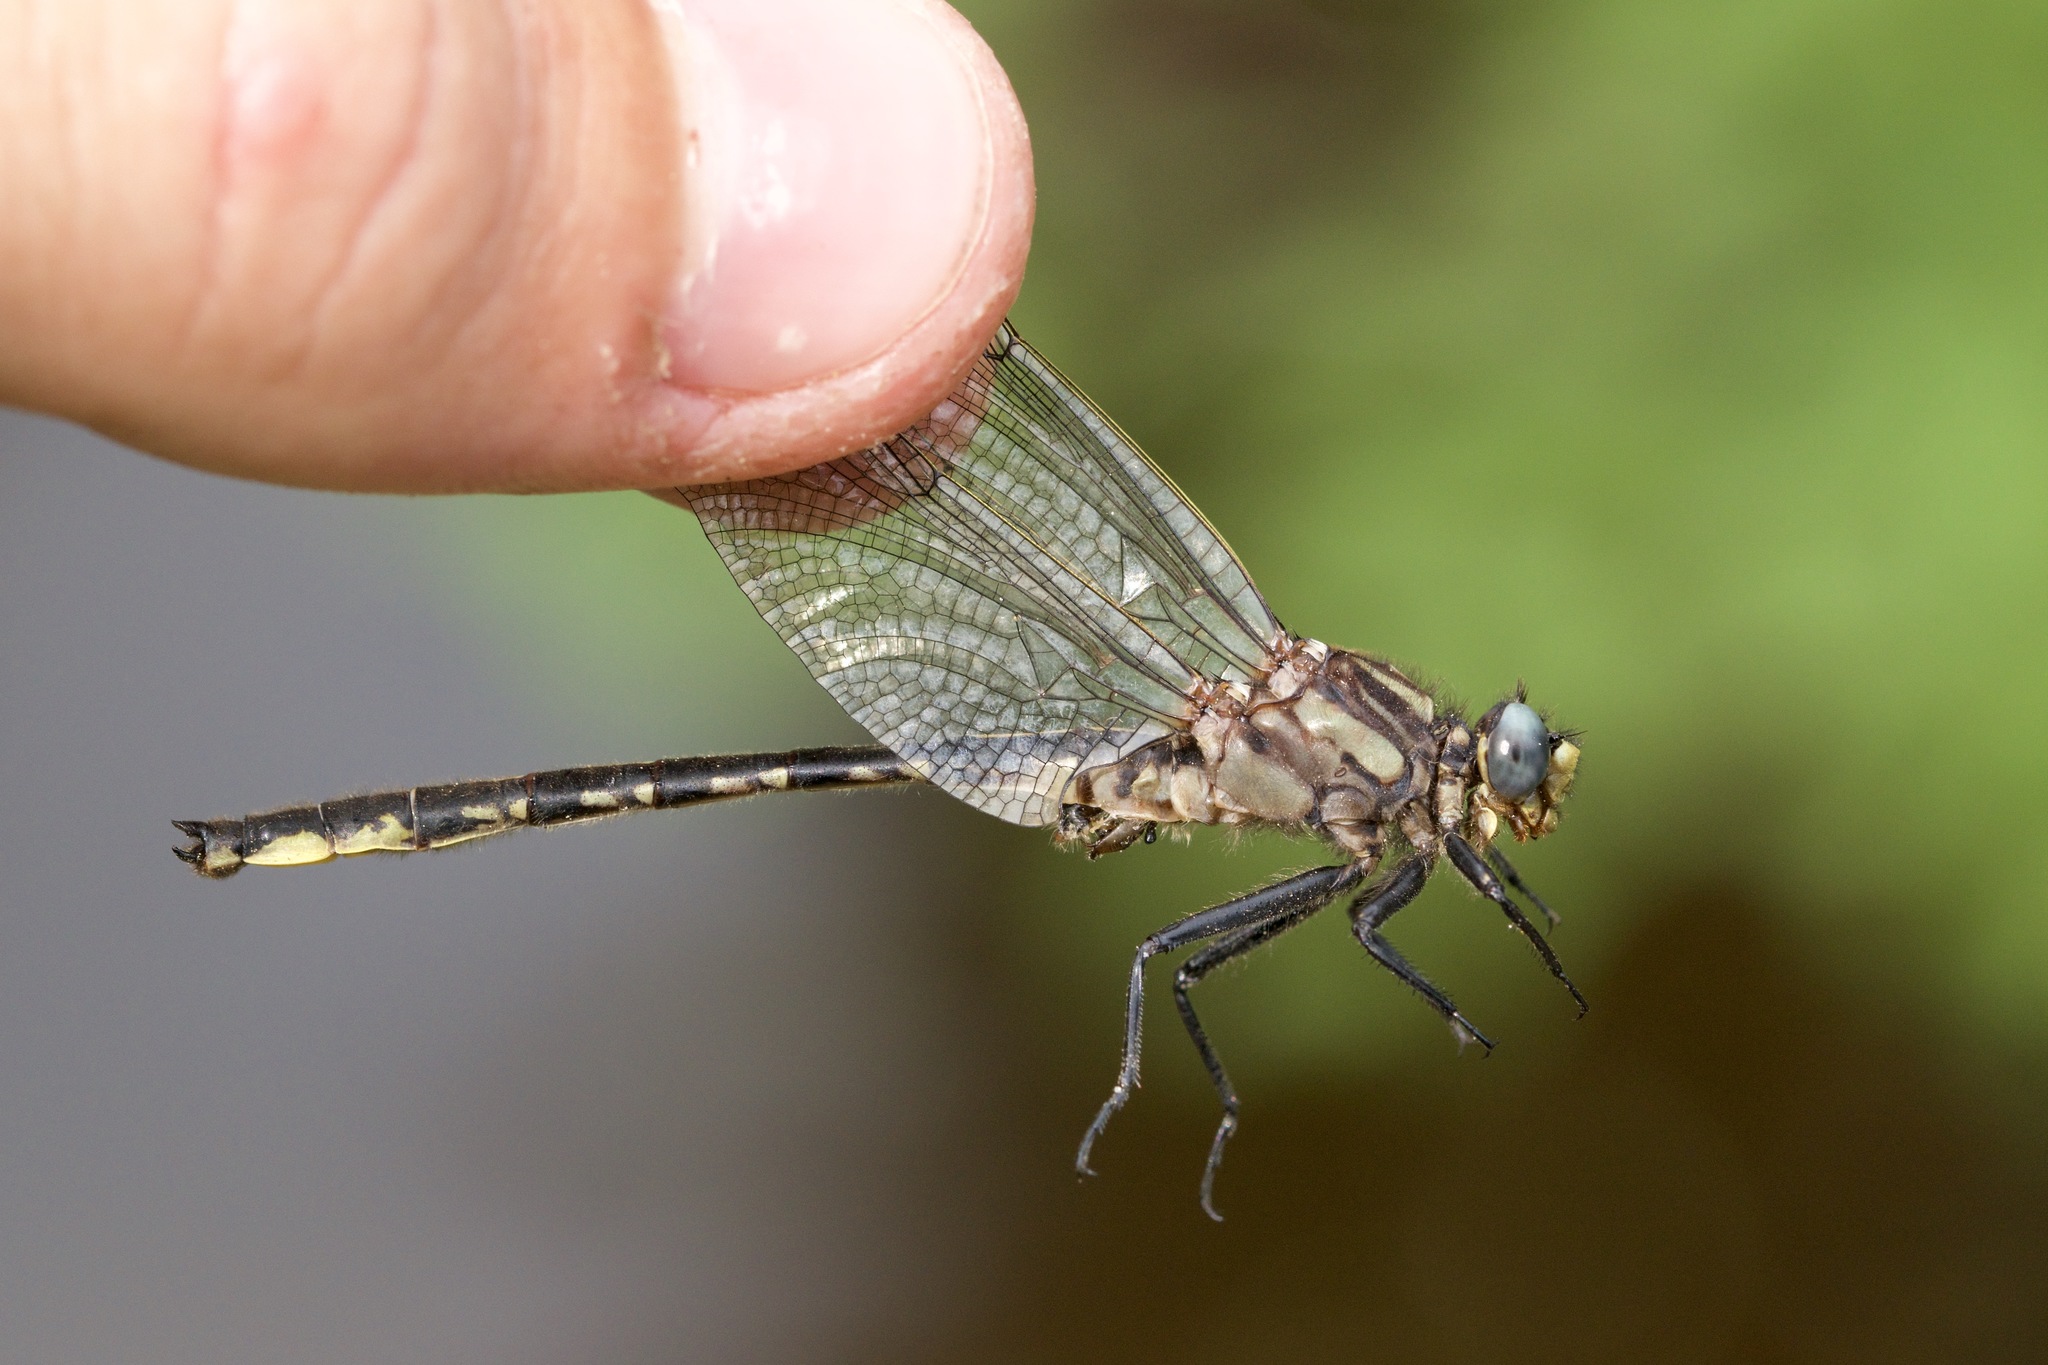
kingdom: Animalia
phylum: Arthropoda
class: Insecta
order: Odonata
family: Gomphidae
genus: Phanogomphus
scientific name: Phanogomphus borealis
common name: Beaverpond clubtail
